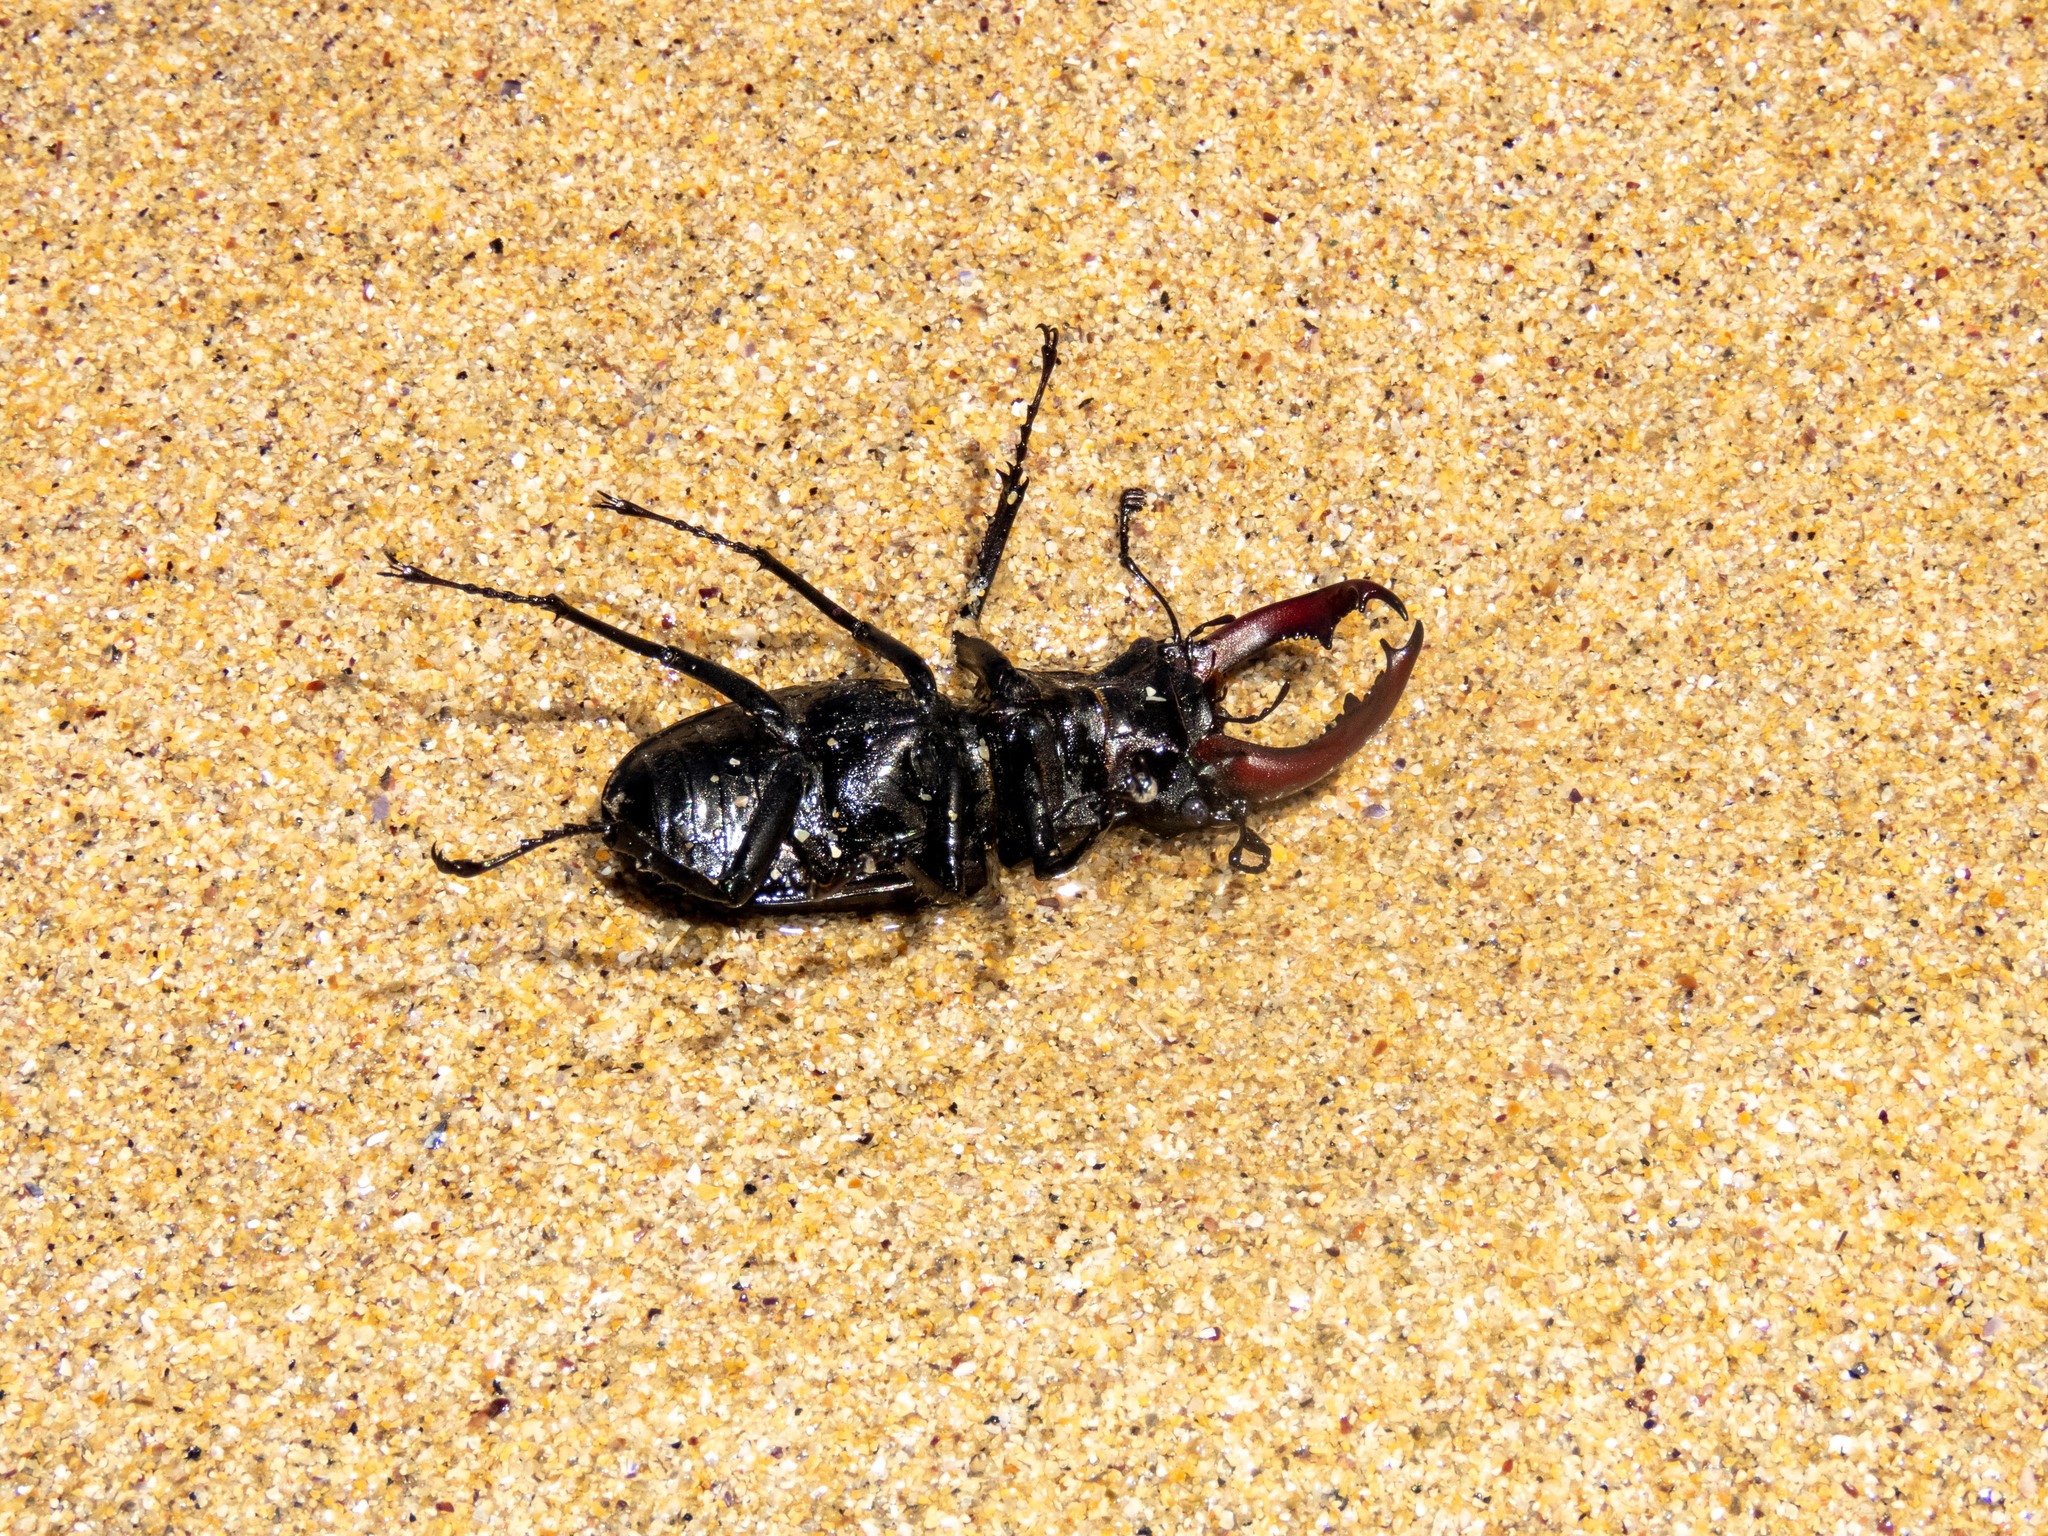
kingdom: Animalia
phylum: Arthropoda
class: Insecta
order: Coleoptera
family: Lucanidae
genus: Lucanus
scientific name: Lucanus cervus
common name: Stag beetle
